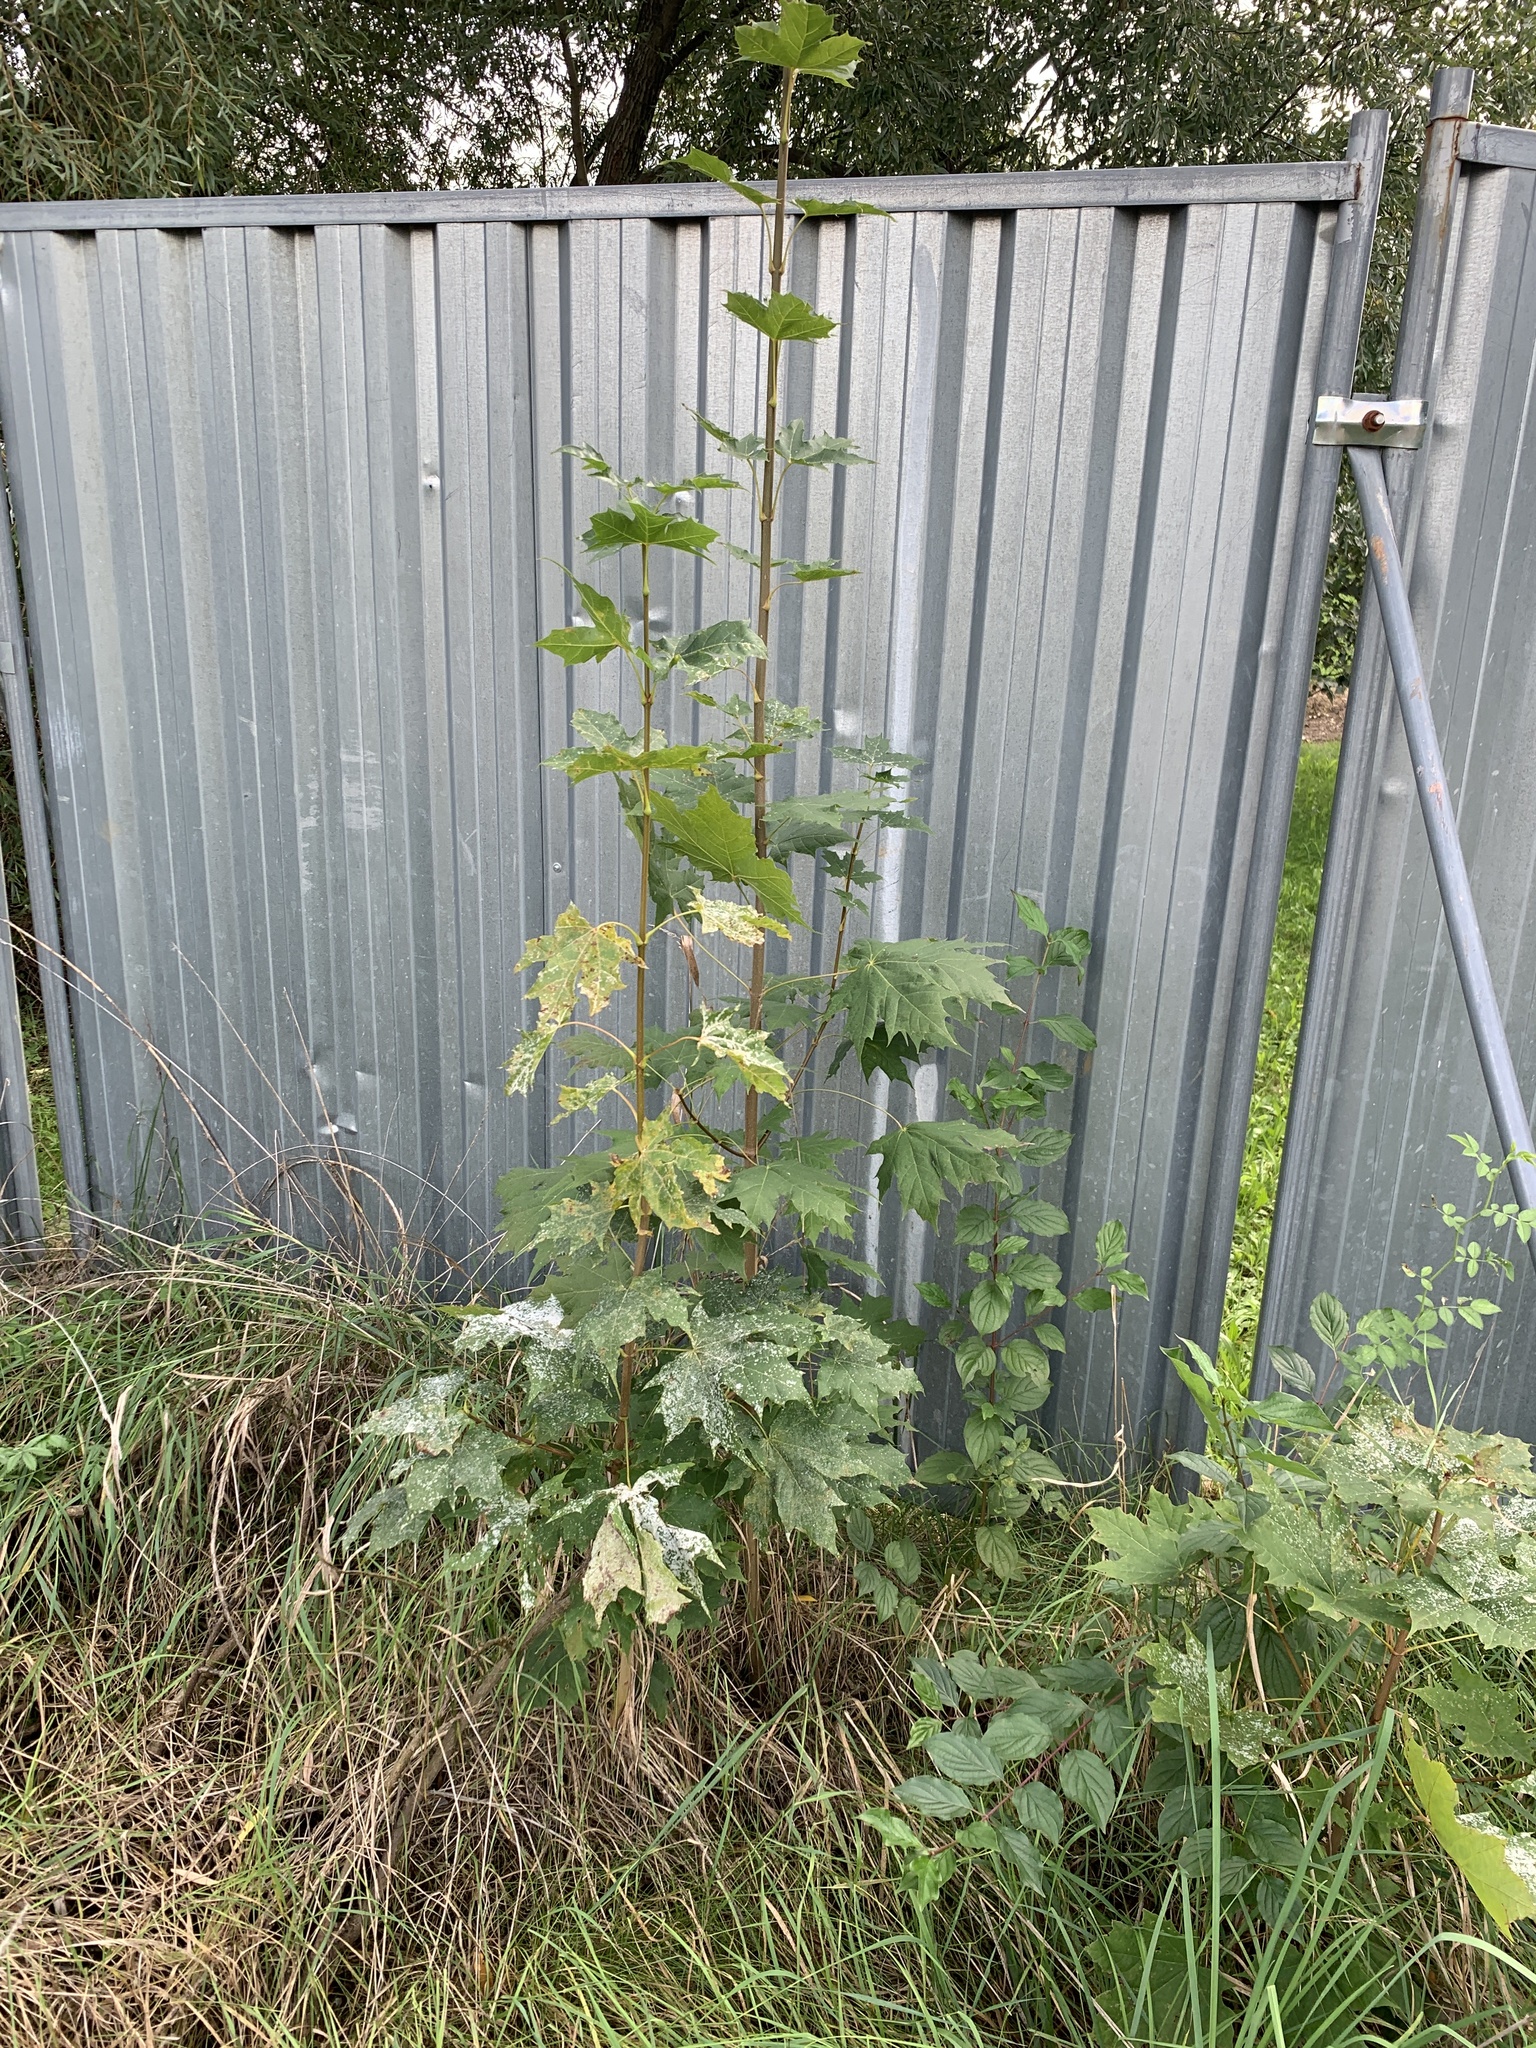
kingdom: Plantae
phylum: Tracheophyta
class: Magnoliopsida
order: Sapindales
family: Sapindaceae
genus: Acer
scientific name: Acer platanoides
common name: Norway maple
